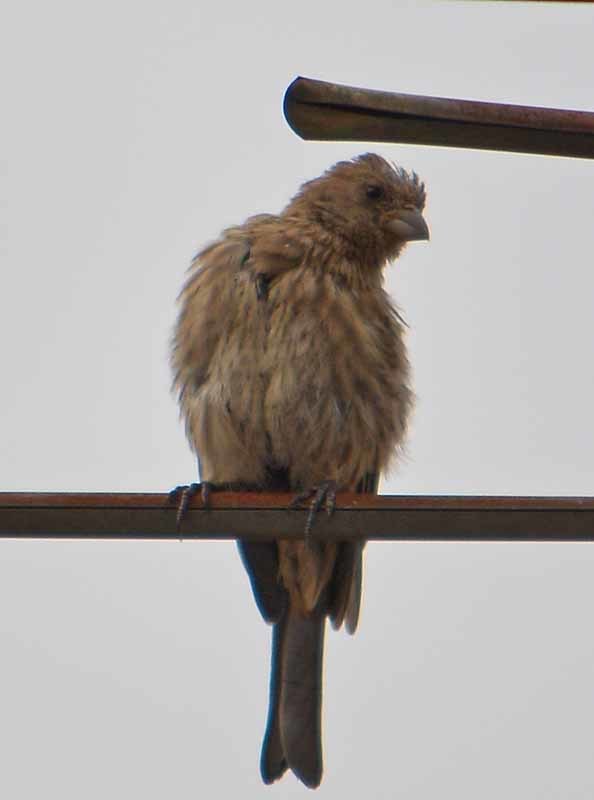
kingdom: Animalia
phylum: Chordata
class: Aves
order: Passeriformes
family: Fringillidae
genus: Haemorhous
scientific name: Haemorhous mexicanus
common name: House finch
